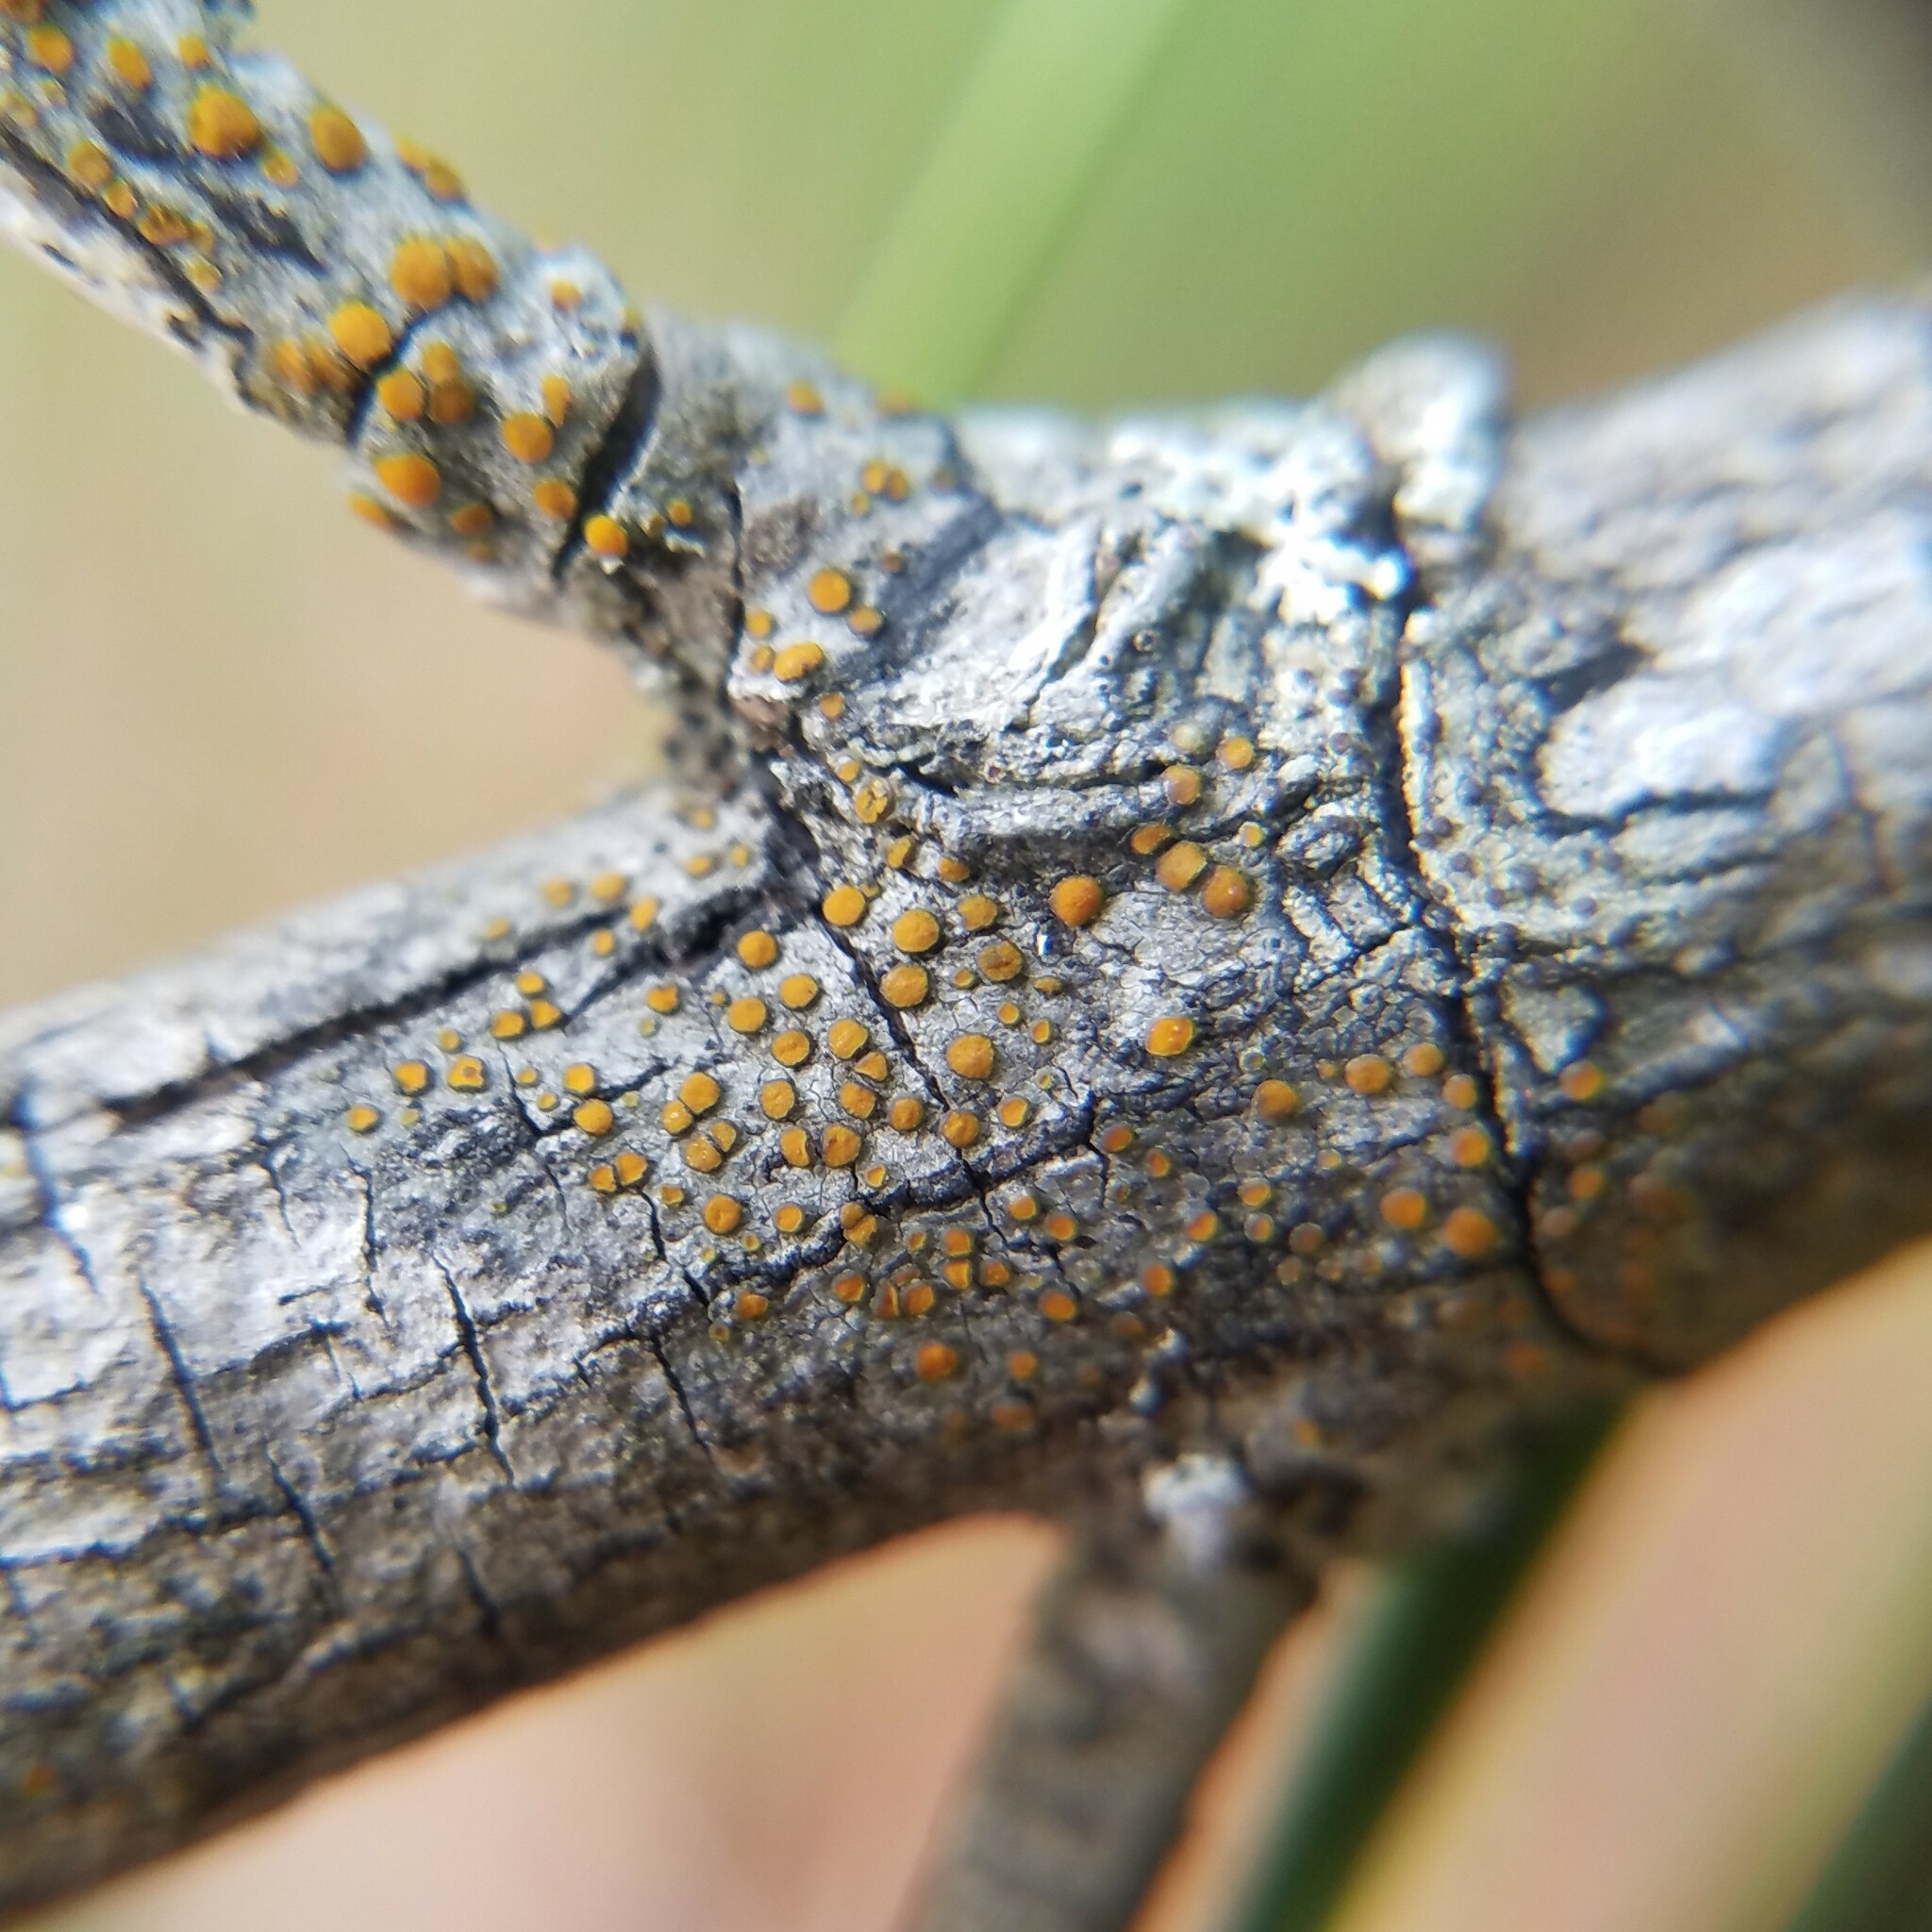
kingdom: Fungi
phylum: Ascomycota
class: Lecanoromycetes
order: Teloschistales
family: Teloschistaceae
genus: Caloplaca
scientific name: Caloplaca cerina
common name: Gray-rimmed firedot lichen
